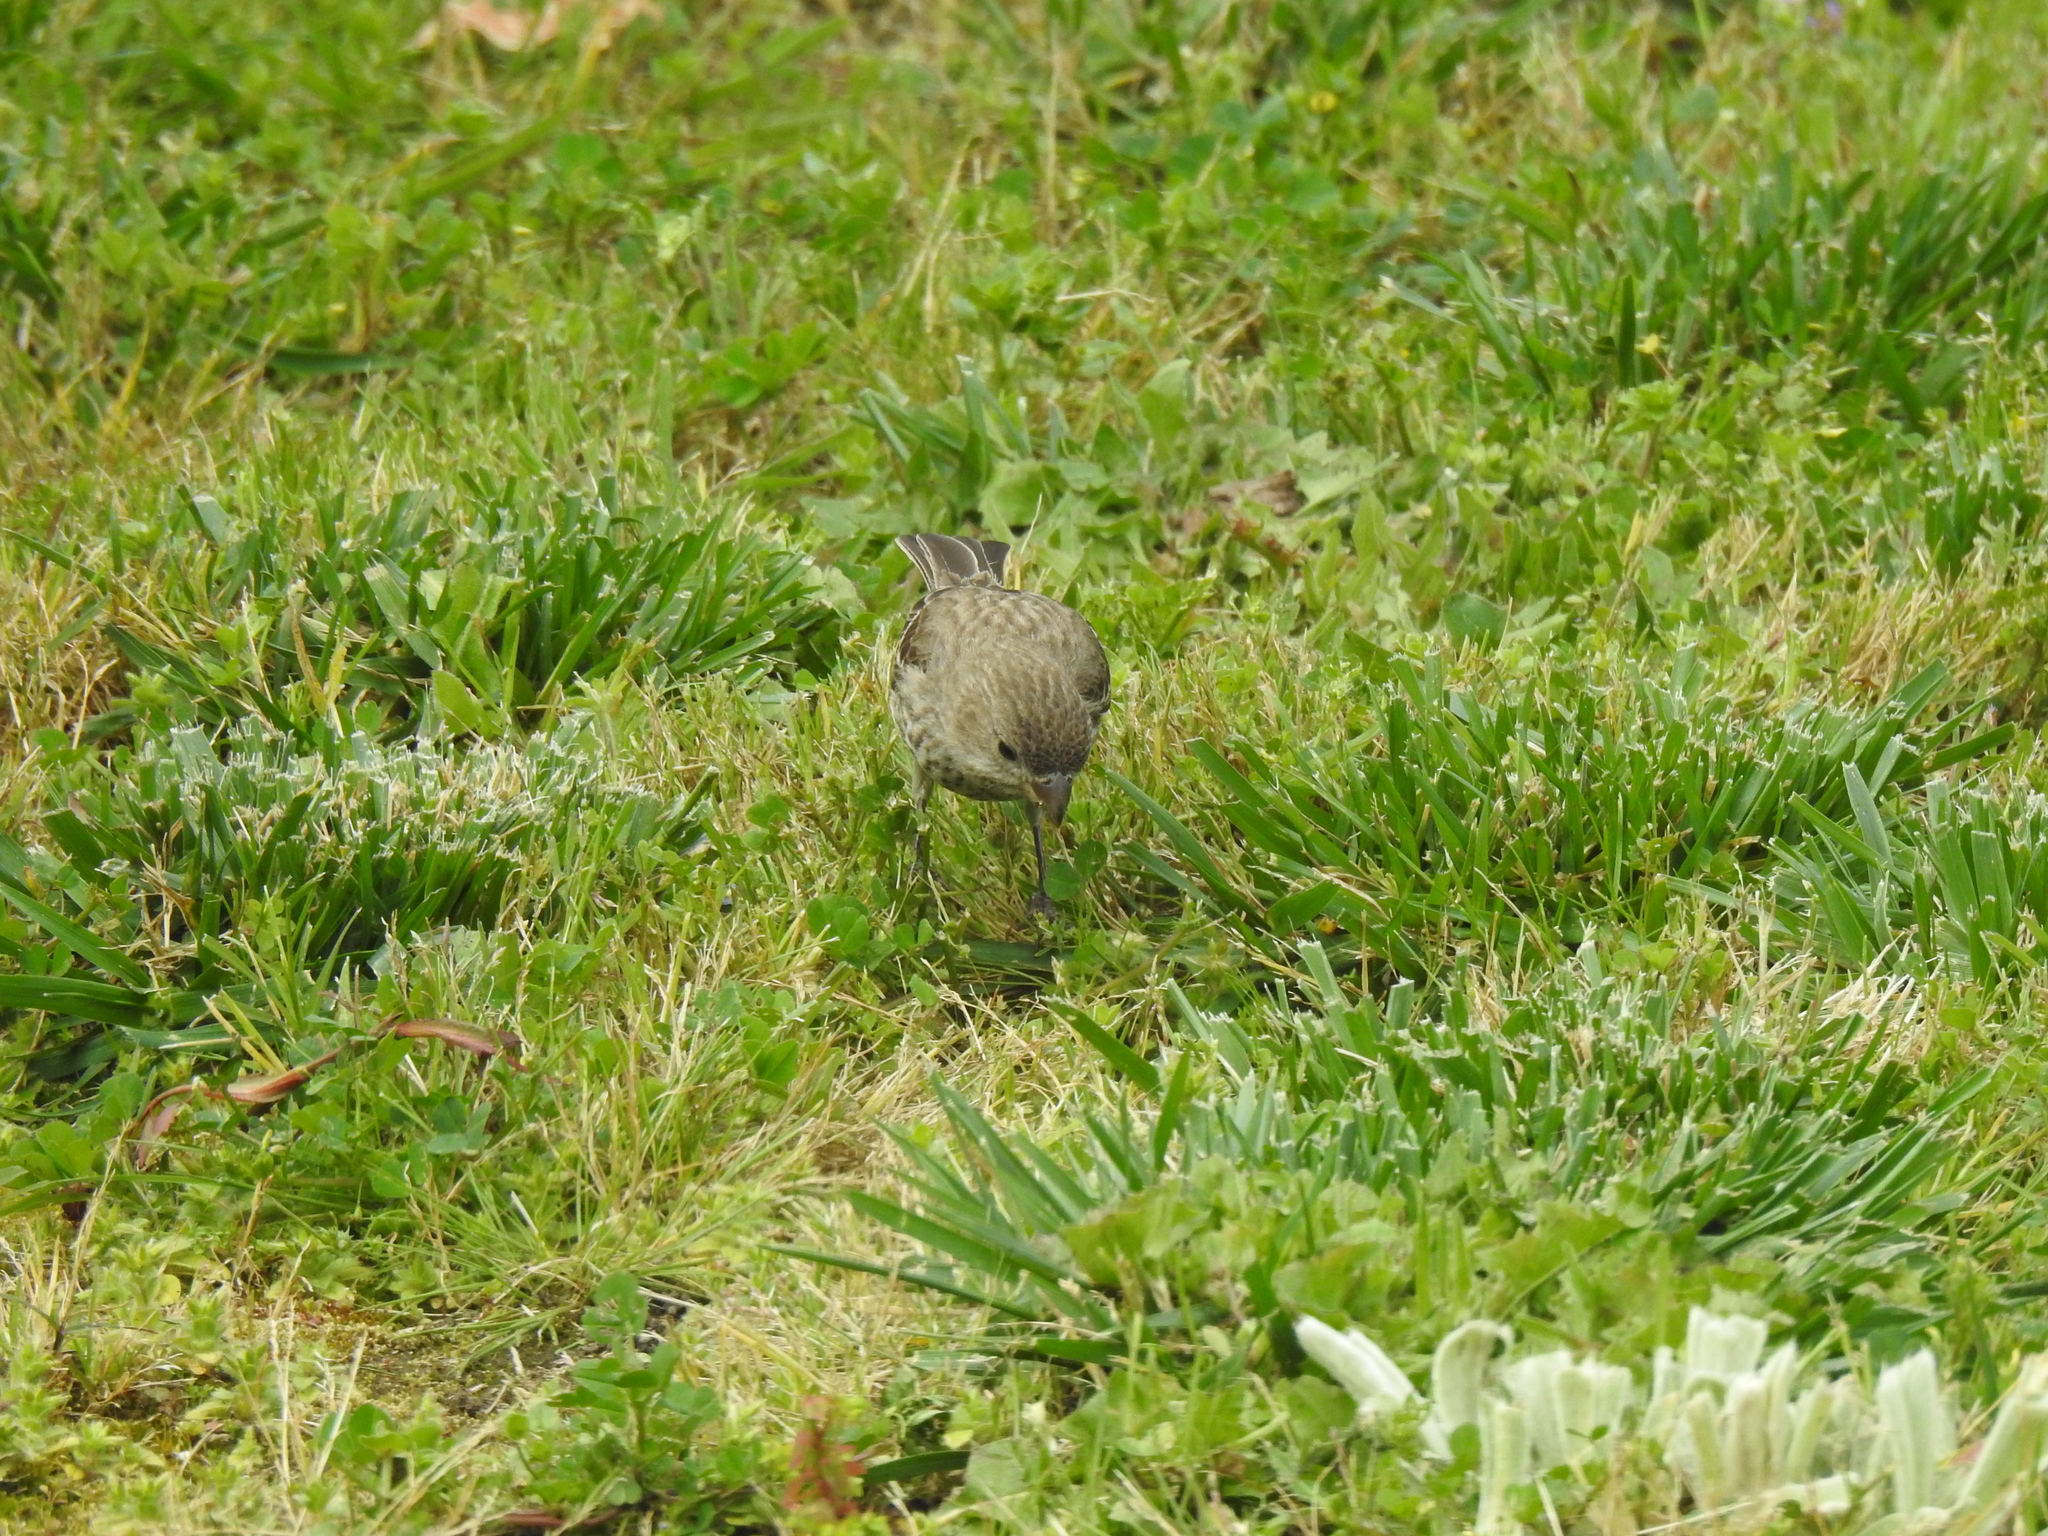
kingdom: Animalia
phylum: Chordata
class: Aves
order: Passeriformes
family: Fringillidae
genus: Haemorhous
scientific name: Haemorhous mexicanus
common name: House finch
